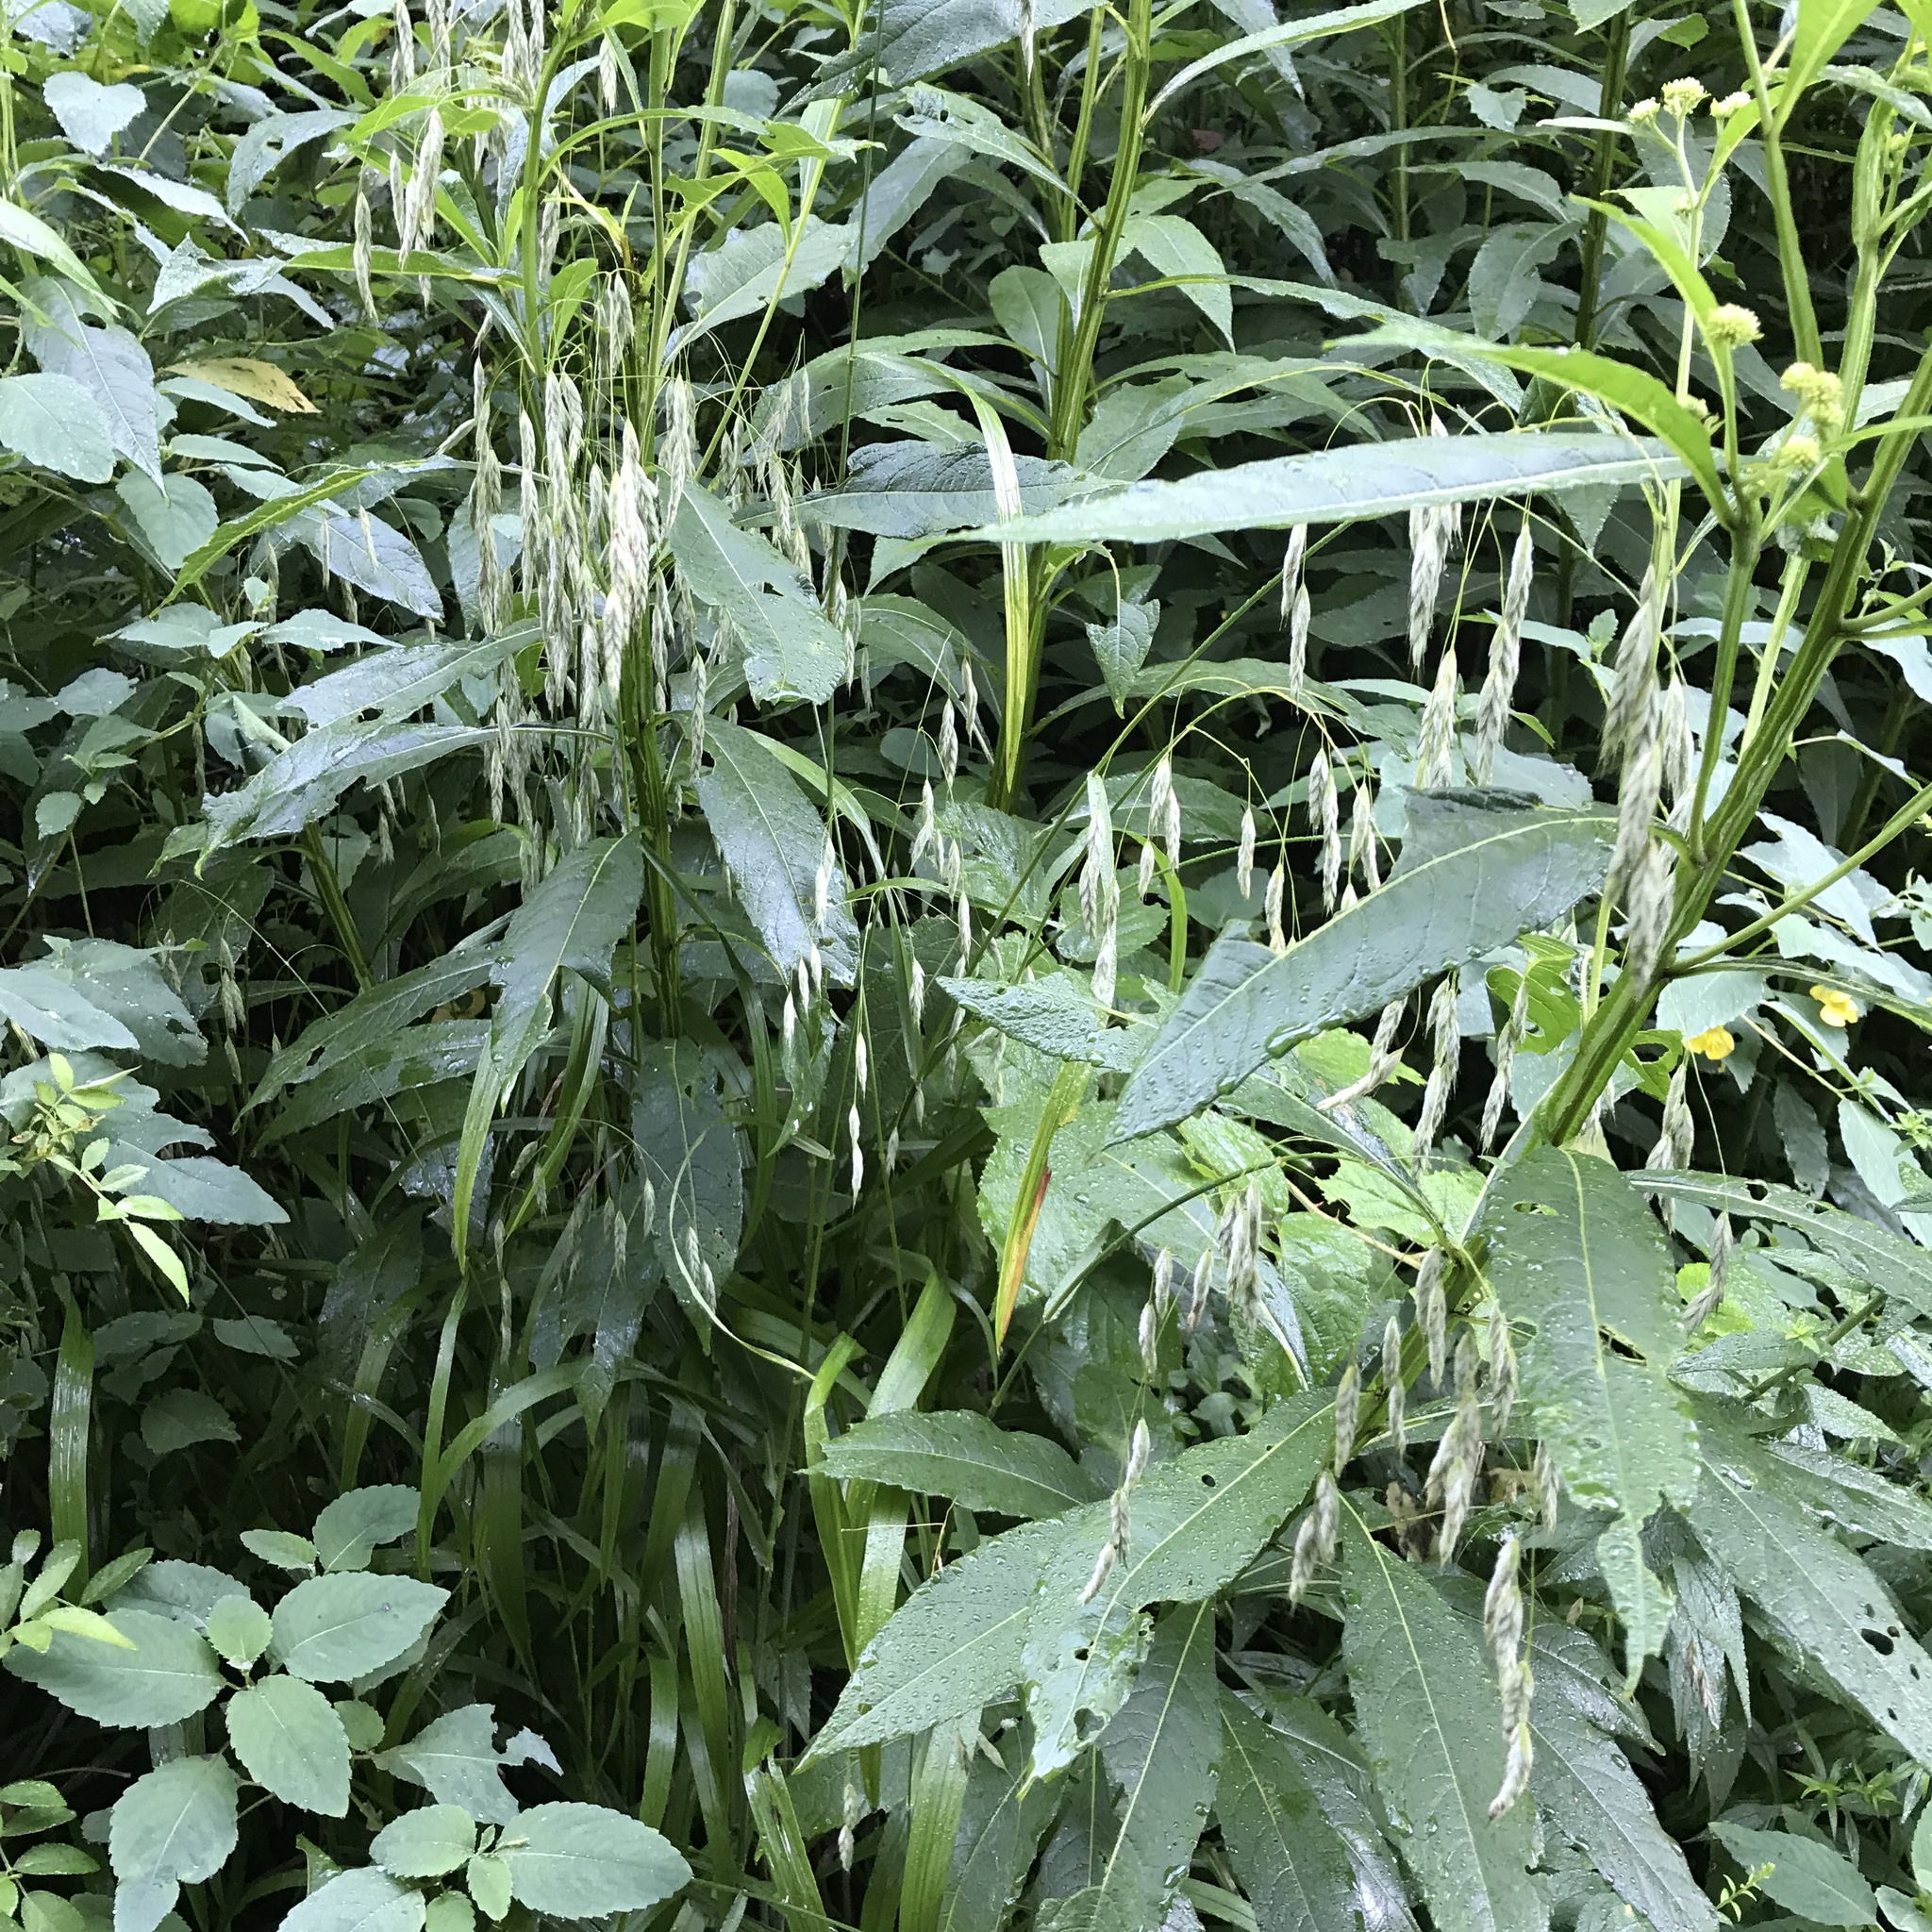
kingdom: Plantae
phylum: Tracheophyta
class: Liliopsida
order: Poales
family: Poaceae
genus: Bromus
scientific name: Bromus pubescens
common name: Hairy wood brome grass
